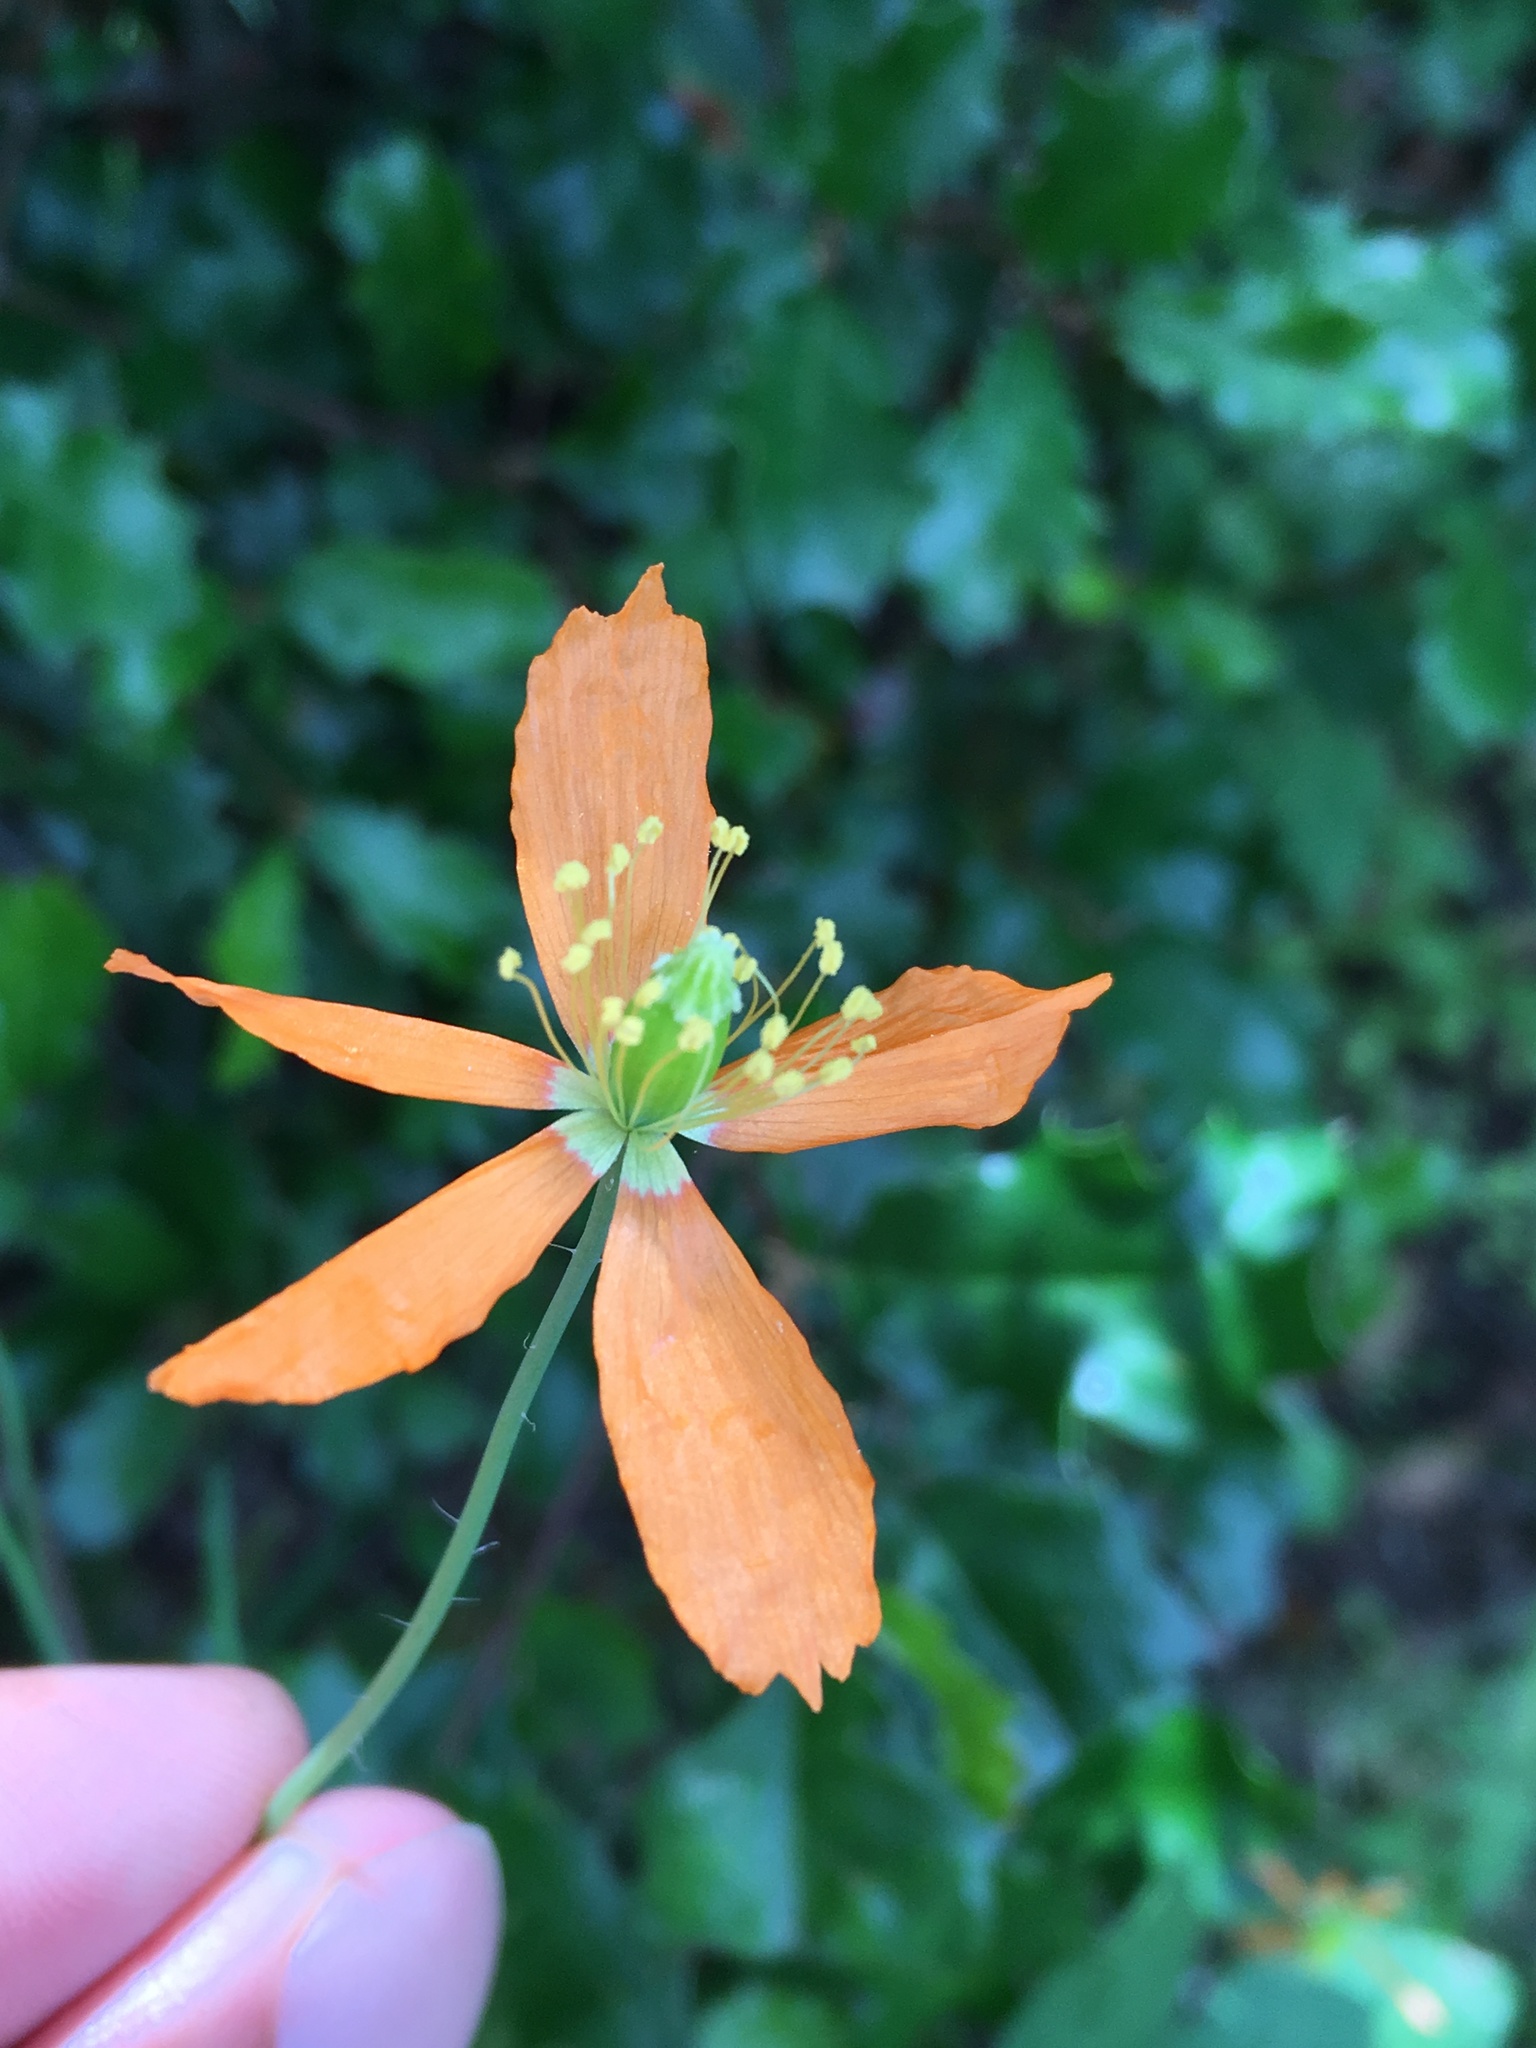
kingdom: Plantae
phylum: Tracheophyta
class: Magnoliopsida
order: Ranunculales
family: Papaveraceae
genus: Papaver
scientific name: Papaver californicum
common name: Fire poppy
